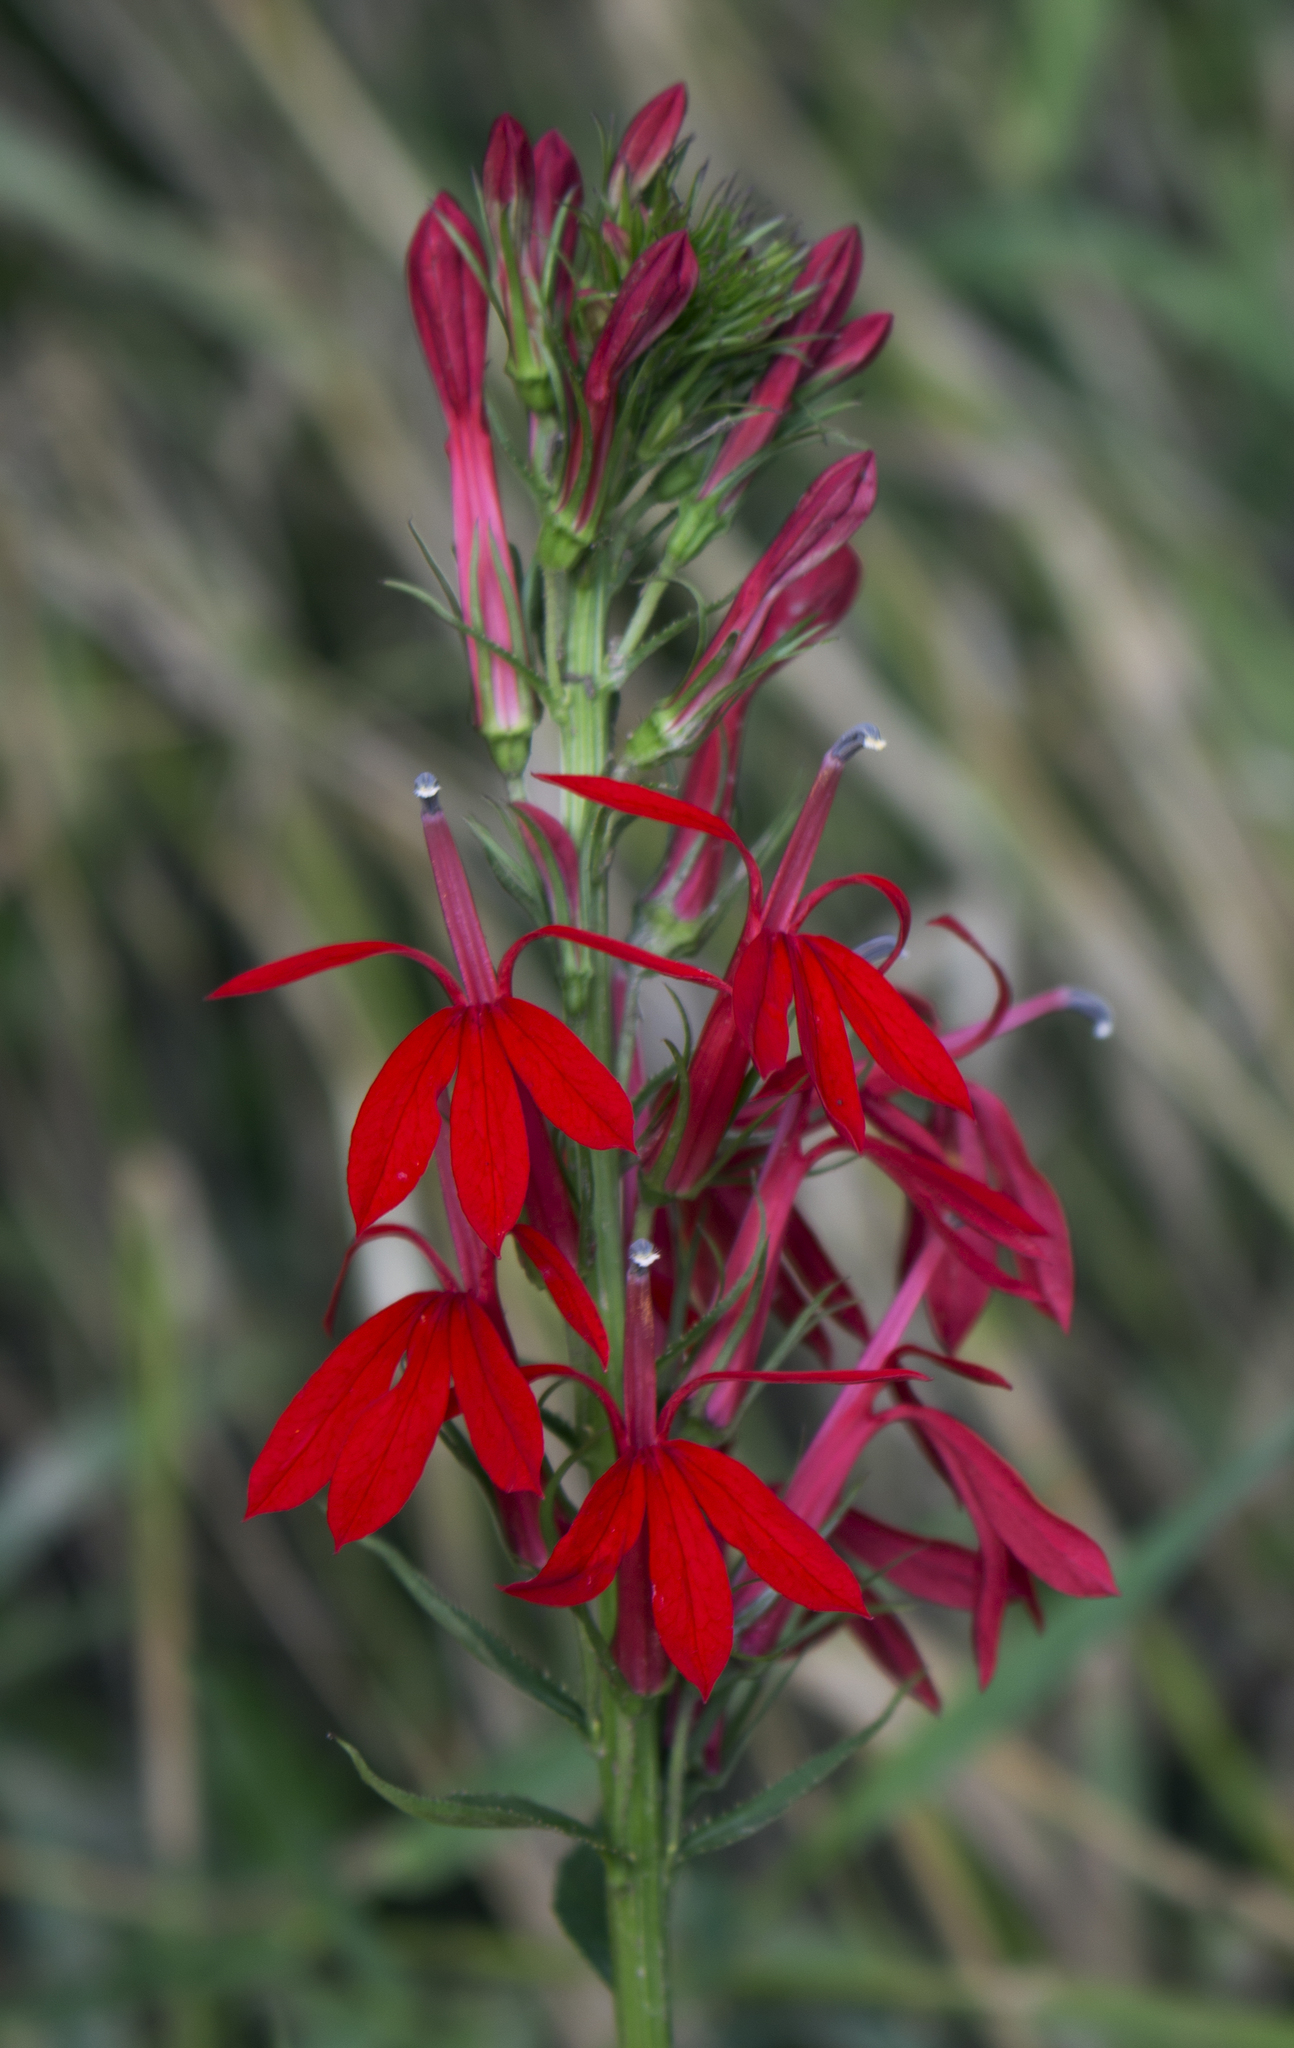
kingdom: Plantae
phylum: Tracheophyta
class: Magnoliopsida
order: Asterales
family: Campanulaceae
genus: Lobelia
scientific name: Lobelia cardinalis
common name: Cardinal flower
